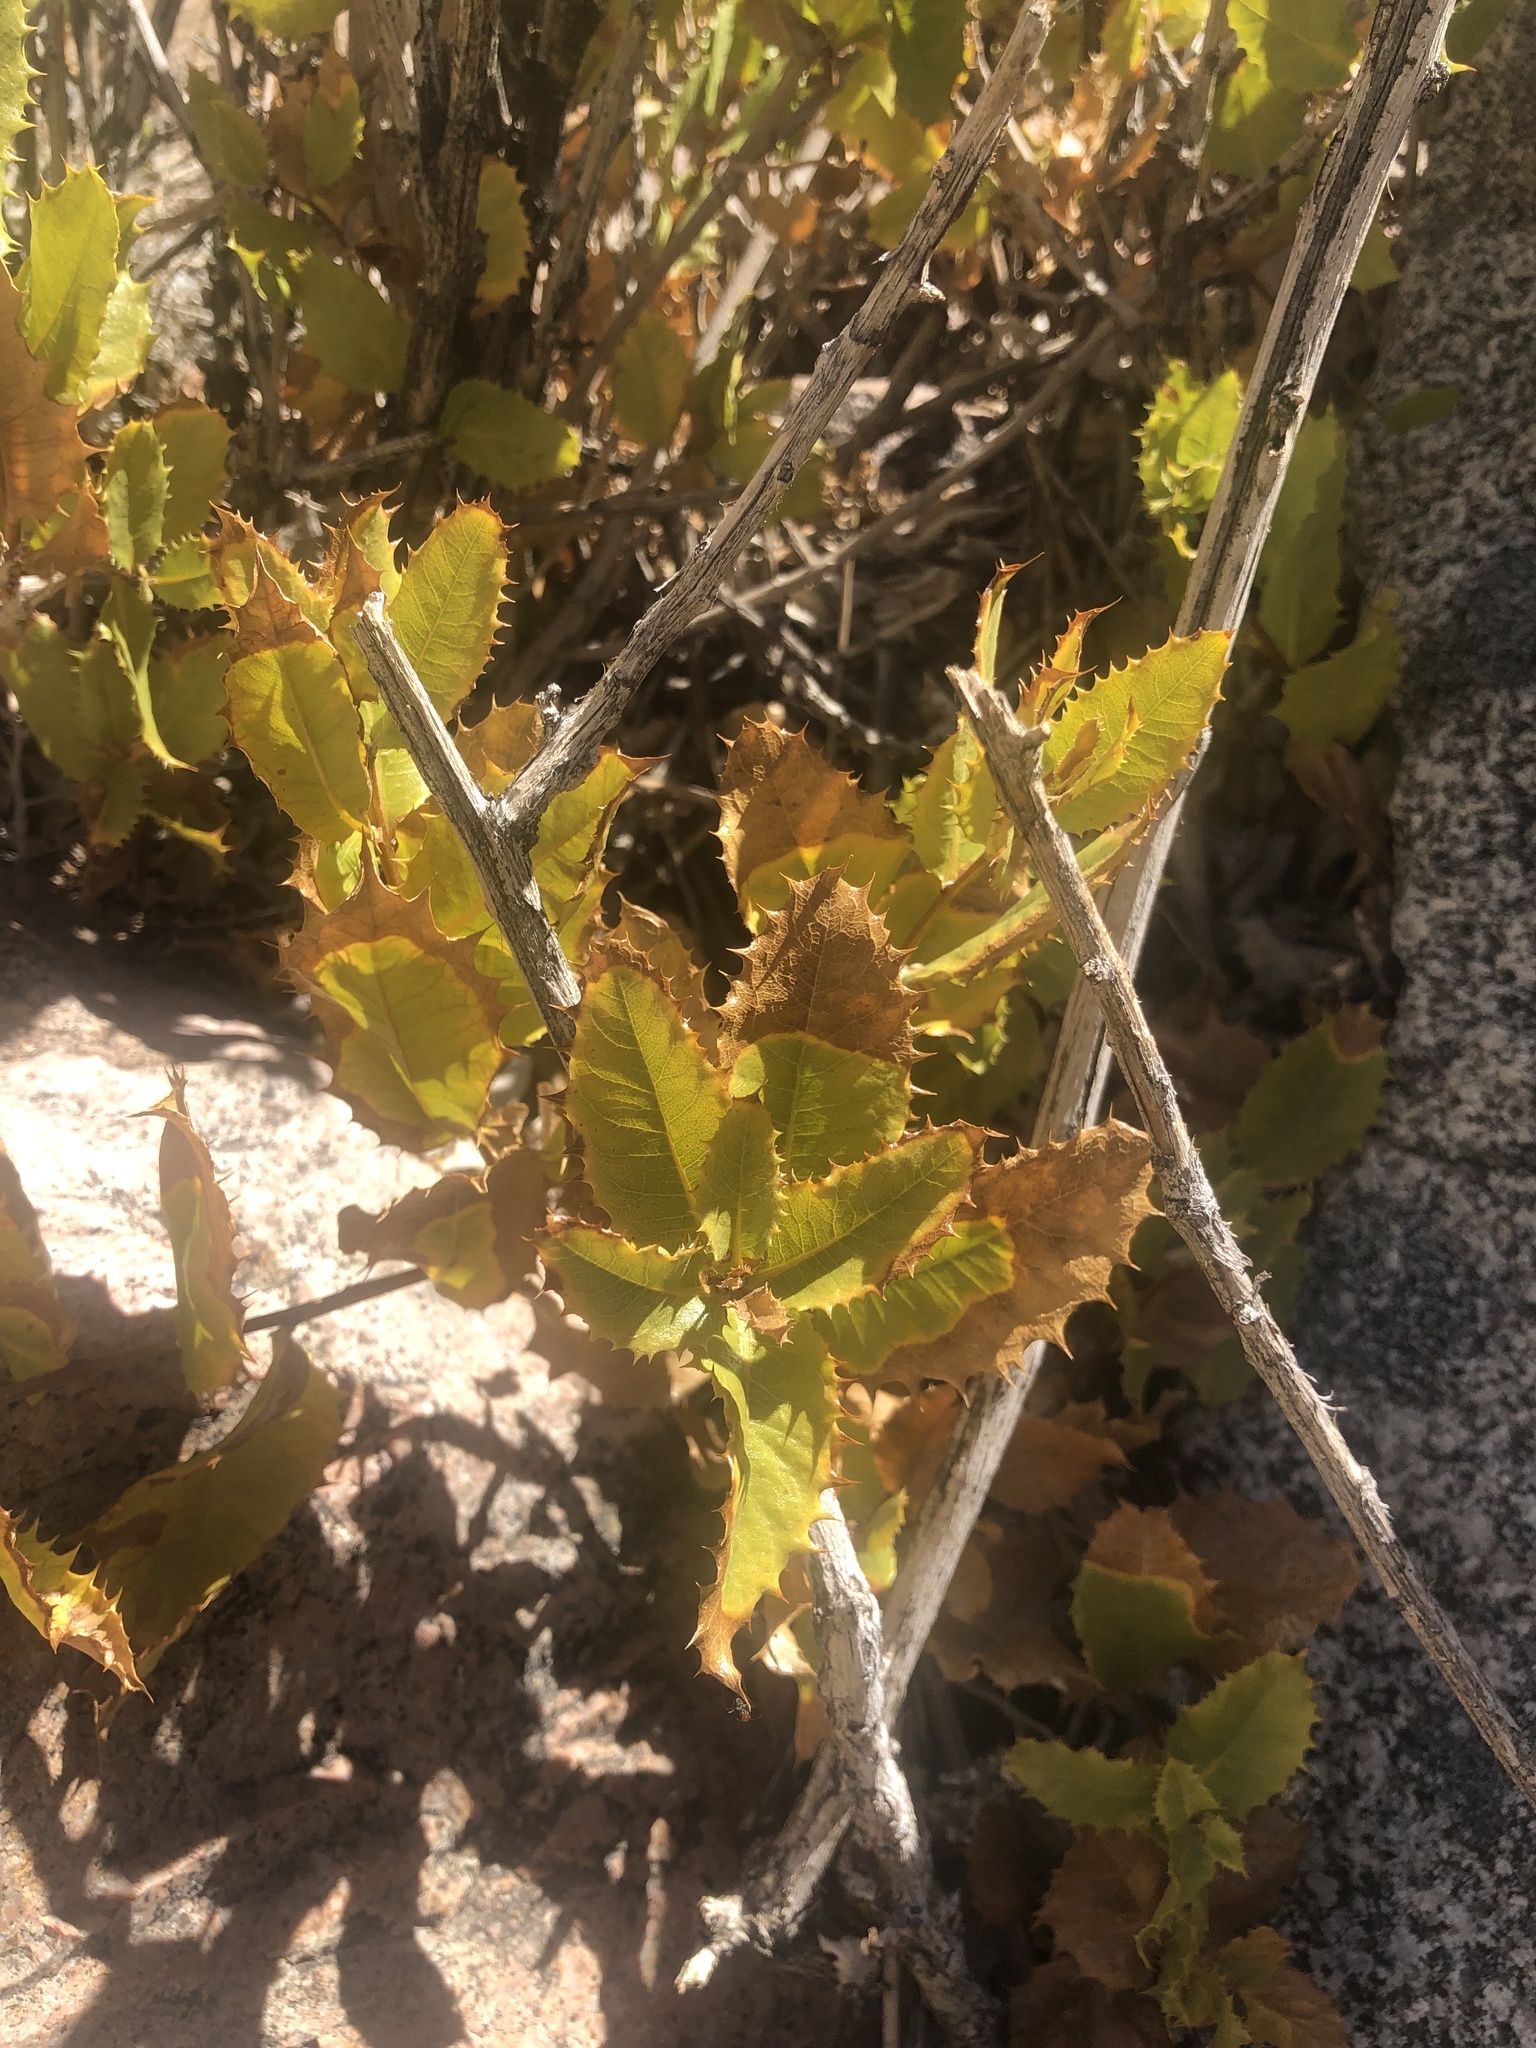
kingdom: Plantae
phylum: Tracheophyta
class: Magnoliopsida
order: Asterales
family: Asteraceae
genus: Spinoliva
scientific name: Spinoliva ilicifolia
